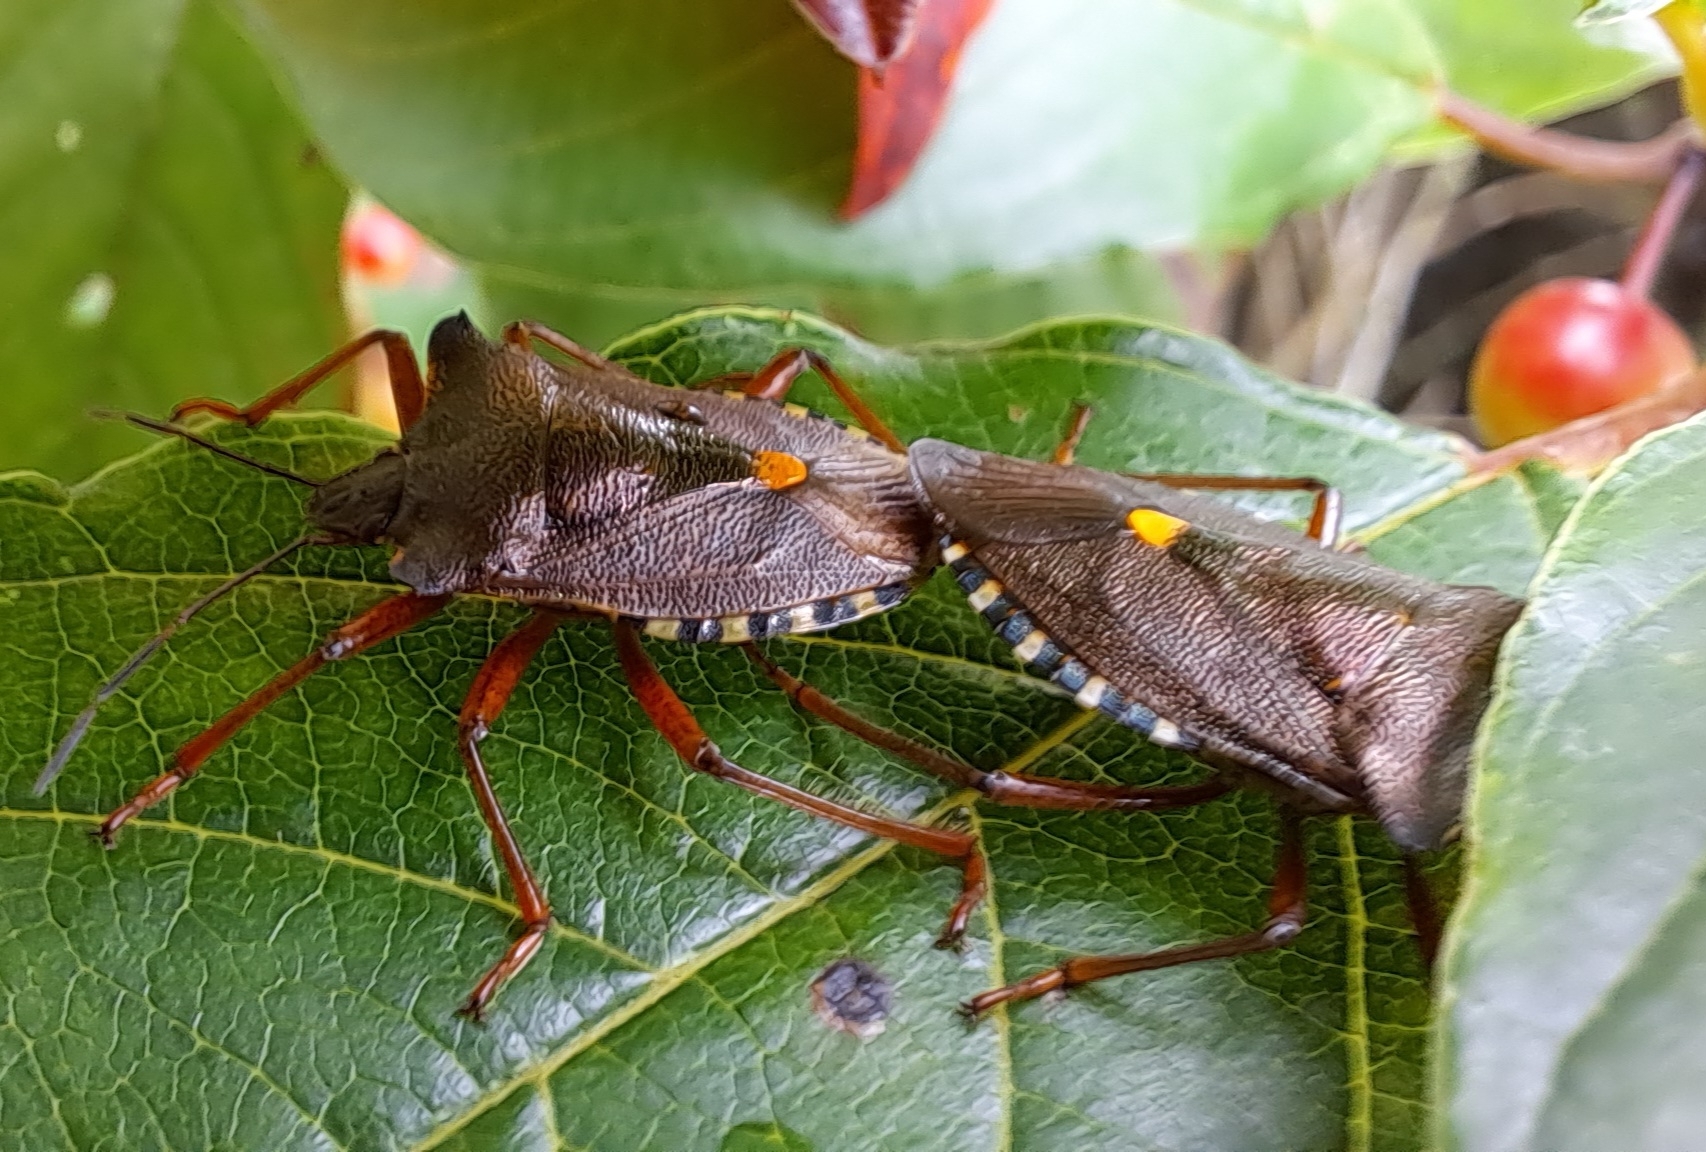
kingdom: Animalia
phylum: Arthropoda
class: Insecta
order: Hemiptera
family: Pentatomidae
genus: Pentatoma
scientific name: Pentatoma rufipes
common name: Forest bug
